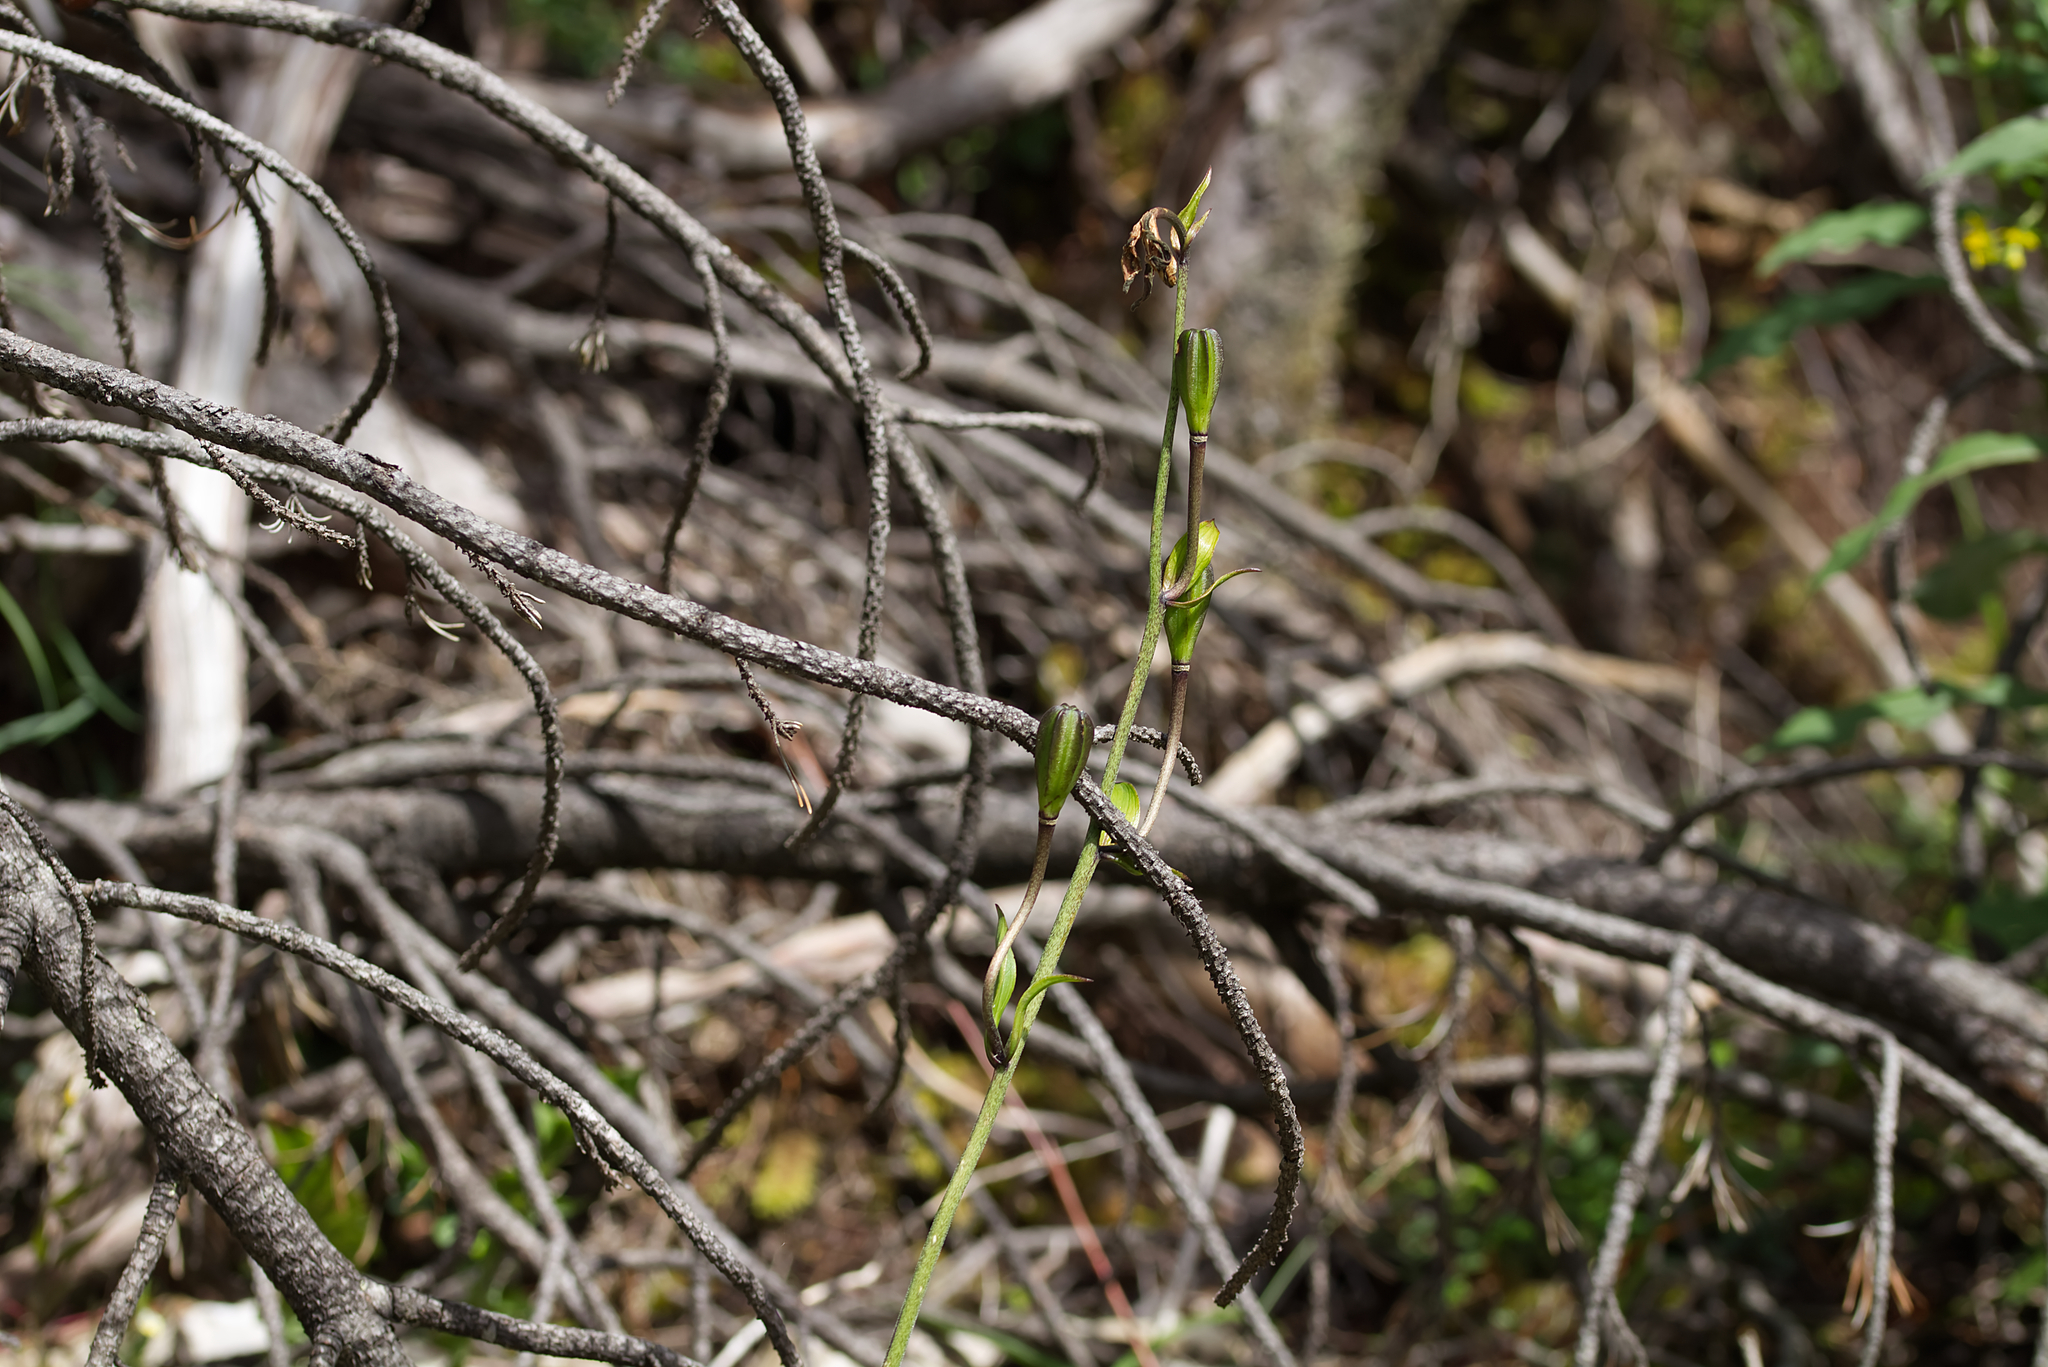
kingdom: Plantae
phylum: Tracheophyta
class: Liliopsida
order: Liliales
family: Liliaceae
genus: Lilium
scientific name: Lilium martagon
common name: Martagon lily
